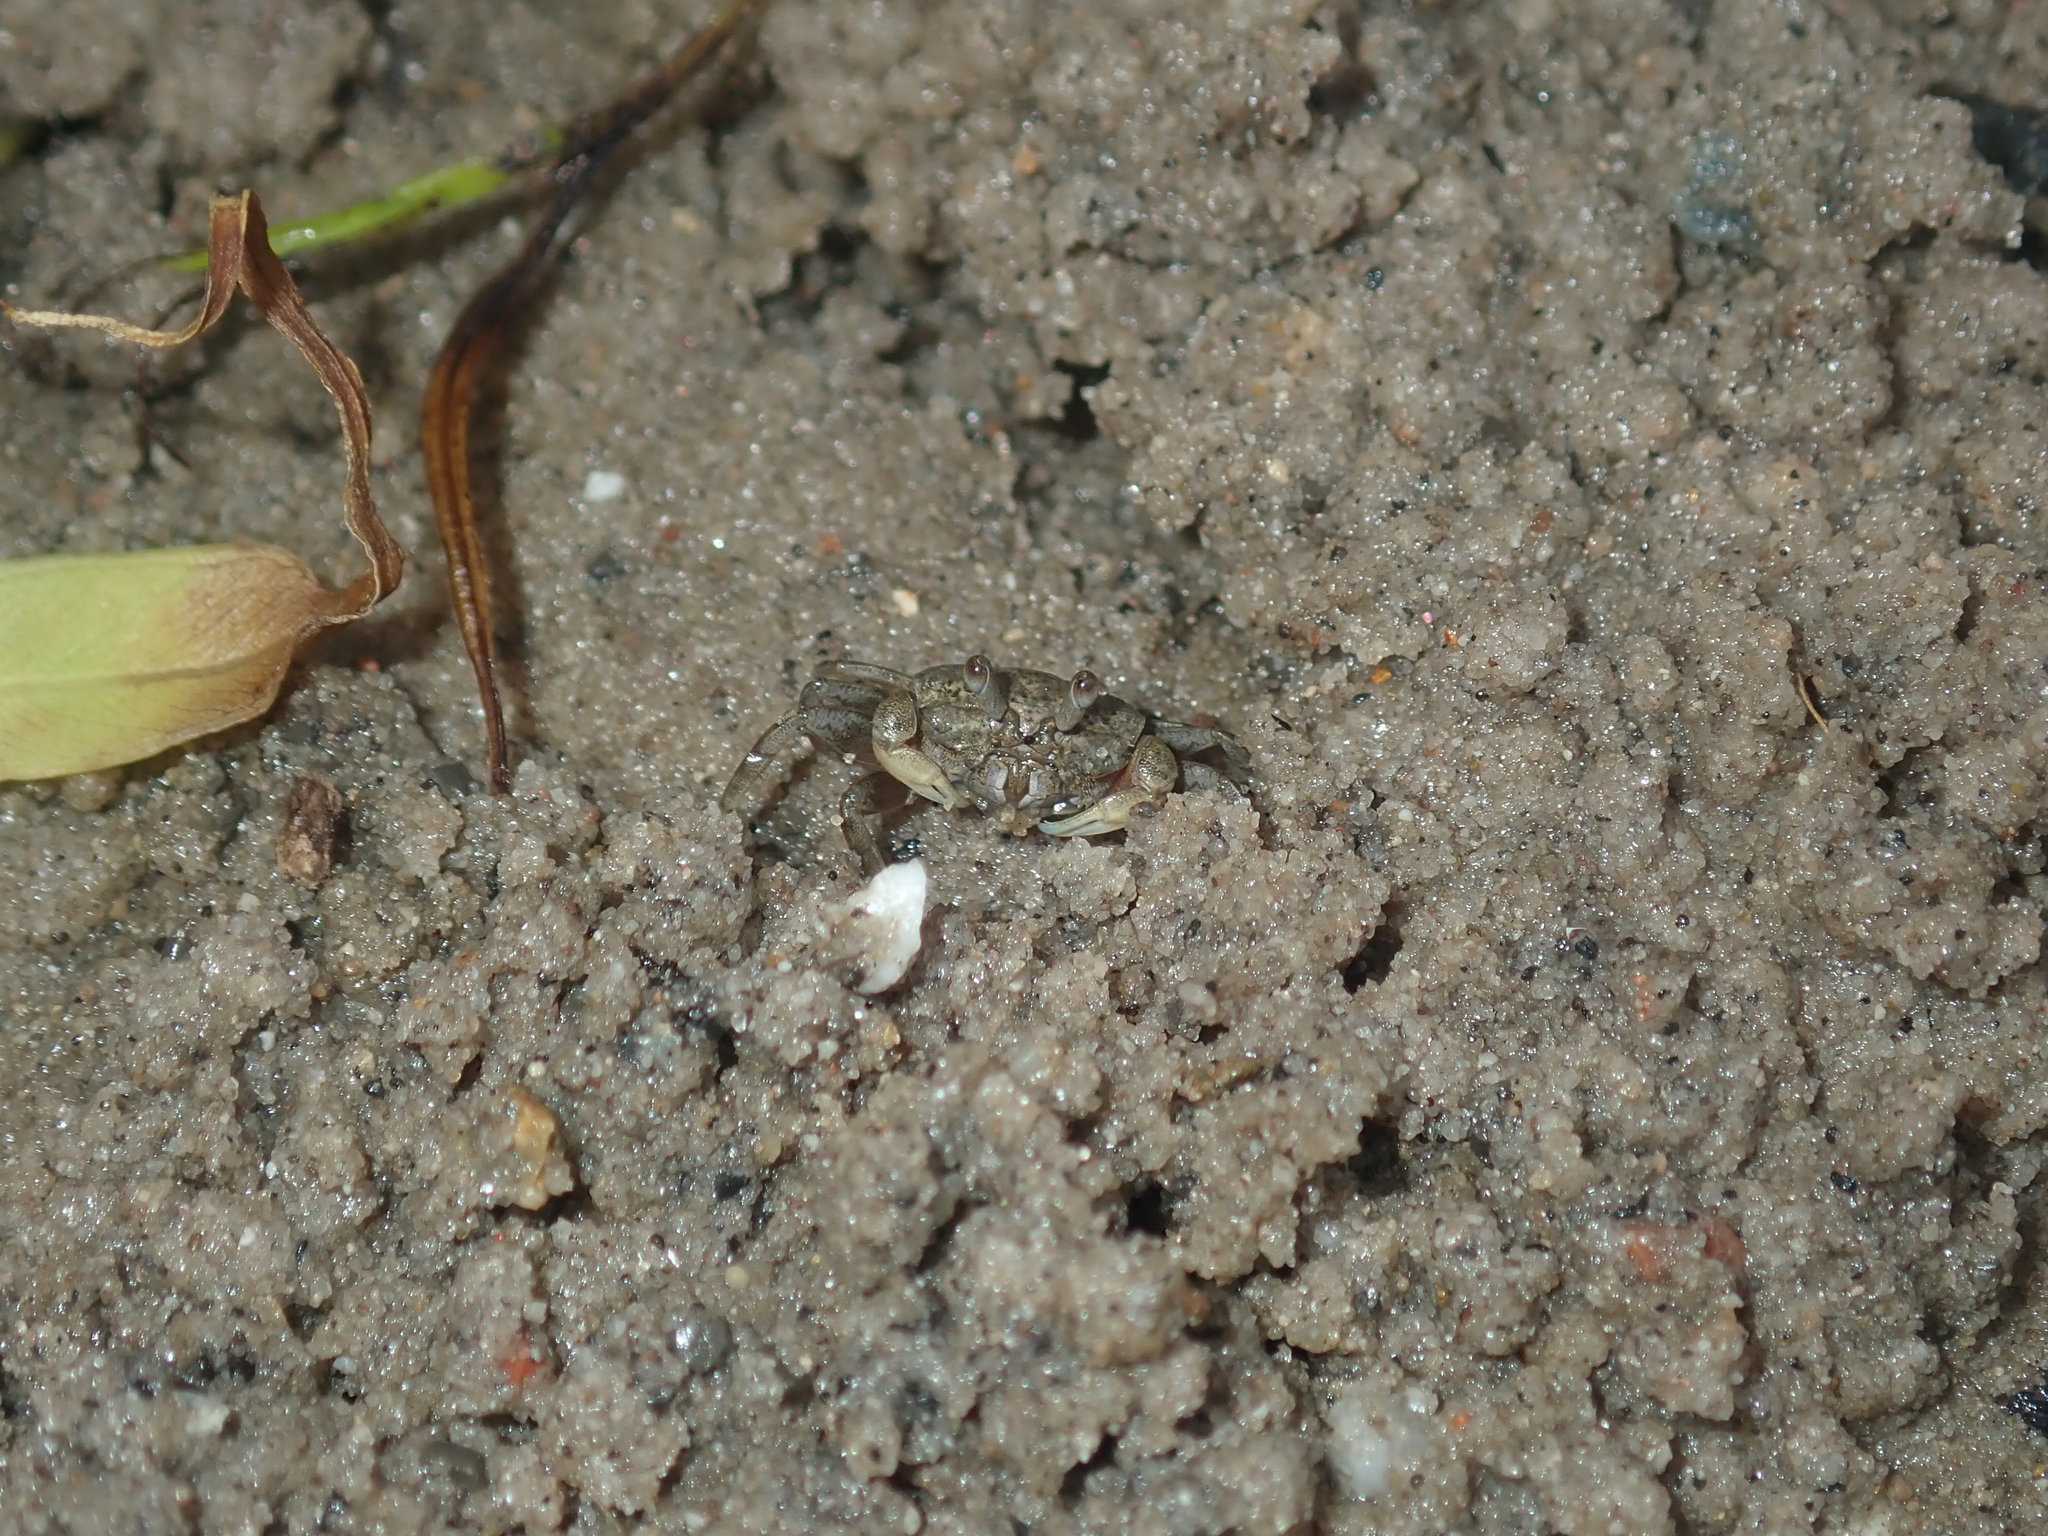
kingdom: Animalia
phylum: Arthropoda
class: Malacostraca
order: Decapoda
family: Heloeciidae
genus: Heloecius
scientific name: Heloecius cordiformis
